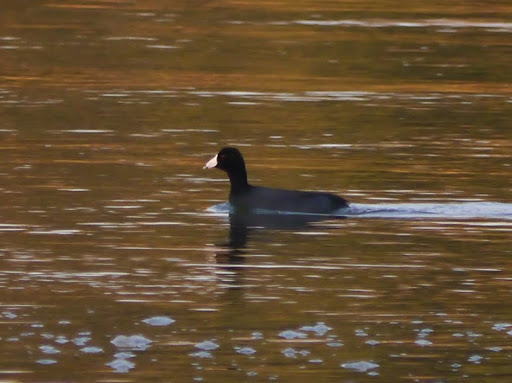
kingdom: Animalia
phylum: Chordata
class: Aves
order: Gruiformes
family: Rallidae
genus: Fulica
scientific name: Fulica americana
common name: American coot
